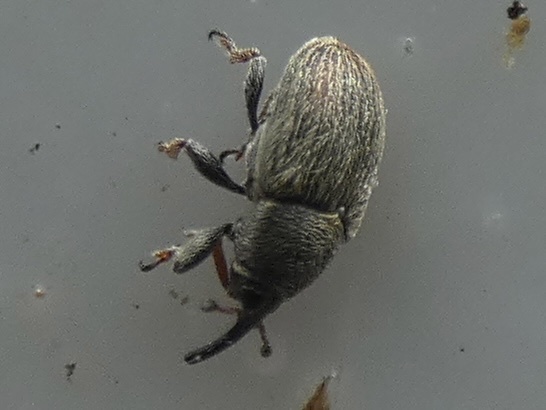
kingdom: Animalia
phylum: Arthropoda
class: Insecta
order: Coleoptera
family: Curculionidae
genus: Mecinus
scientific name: Mecinus pascuorum
